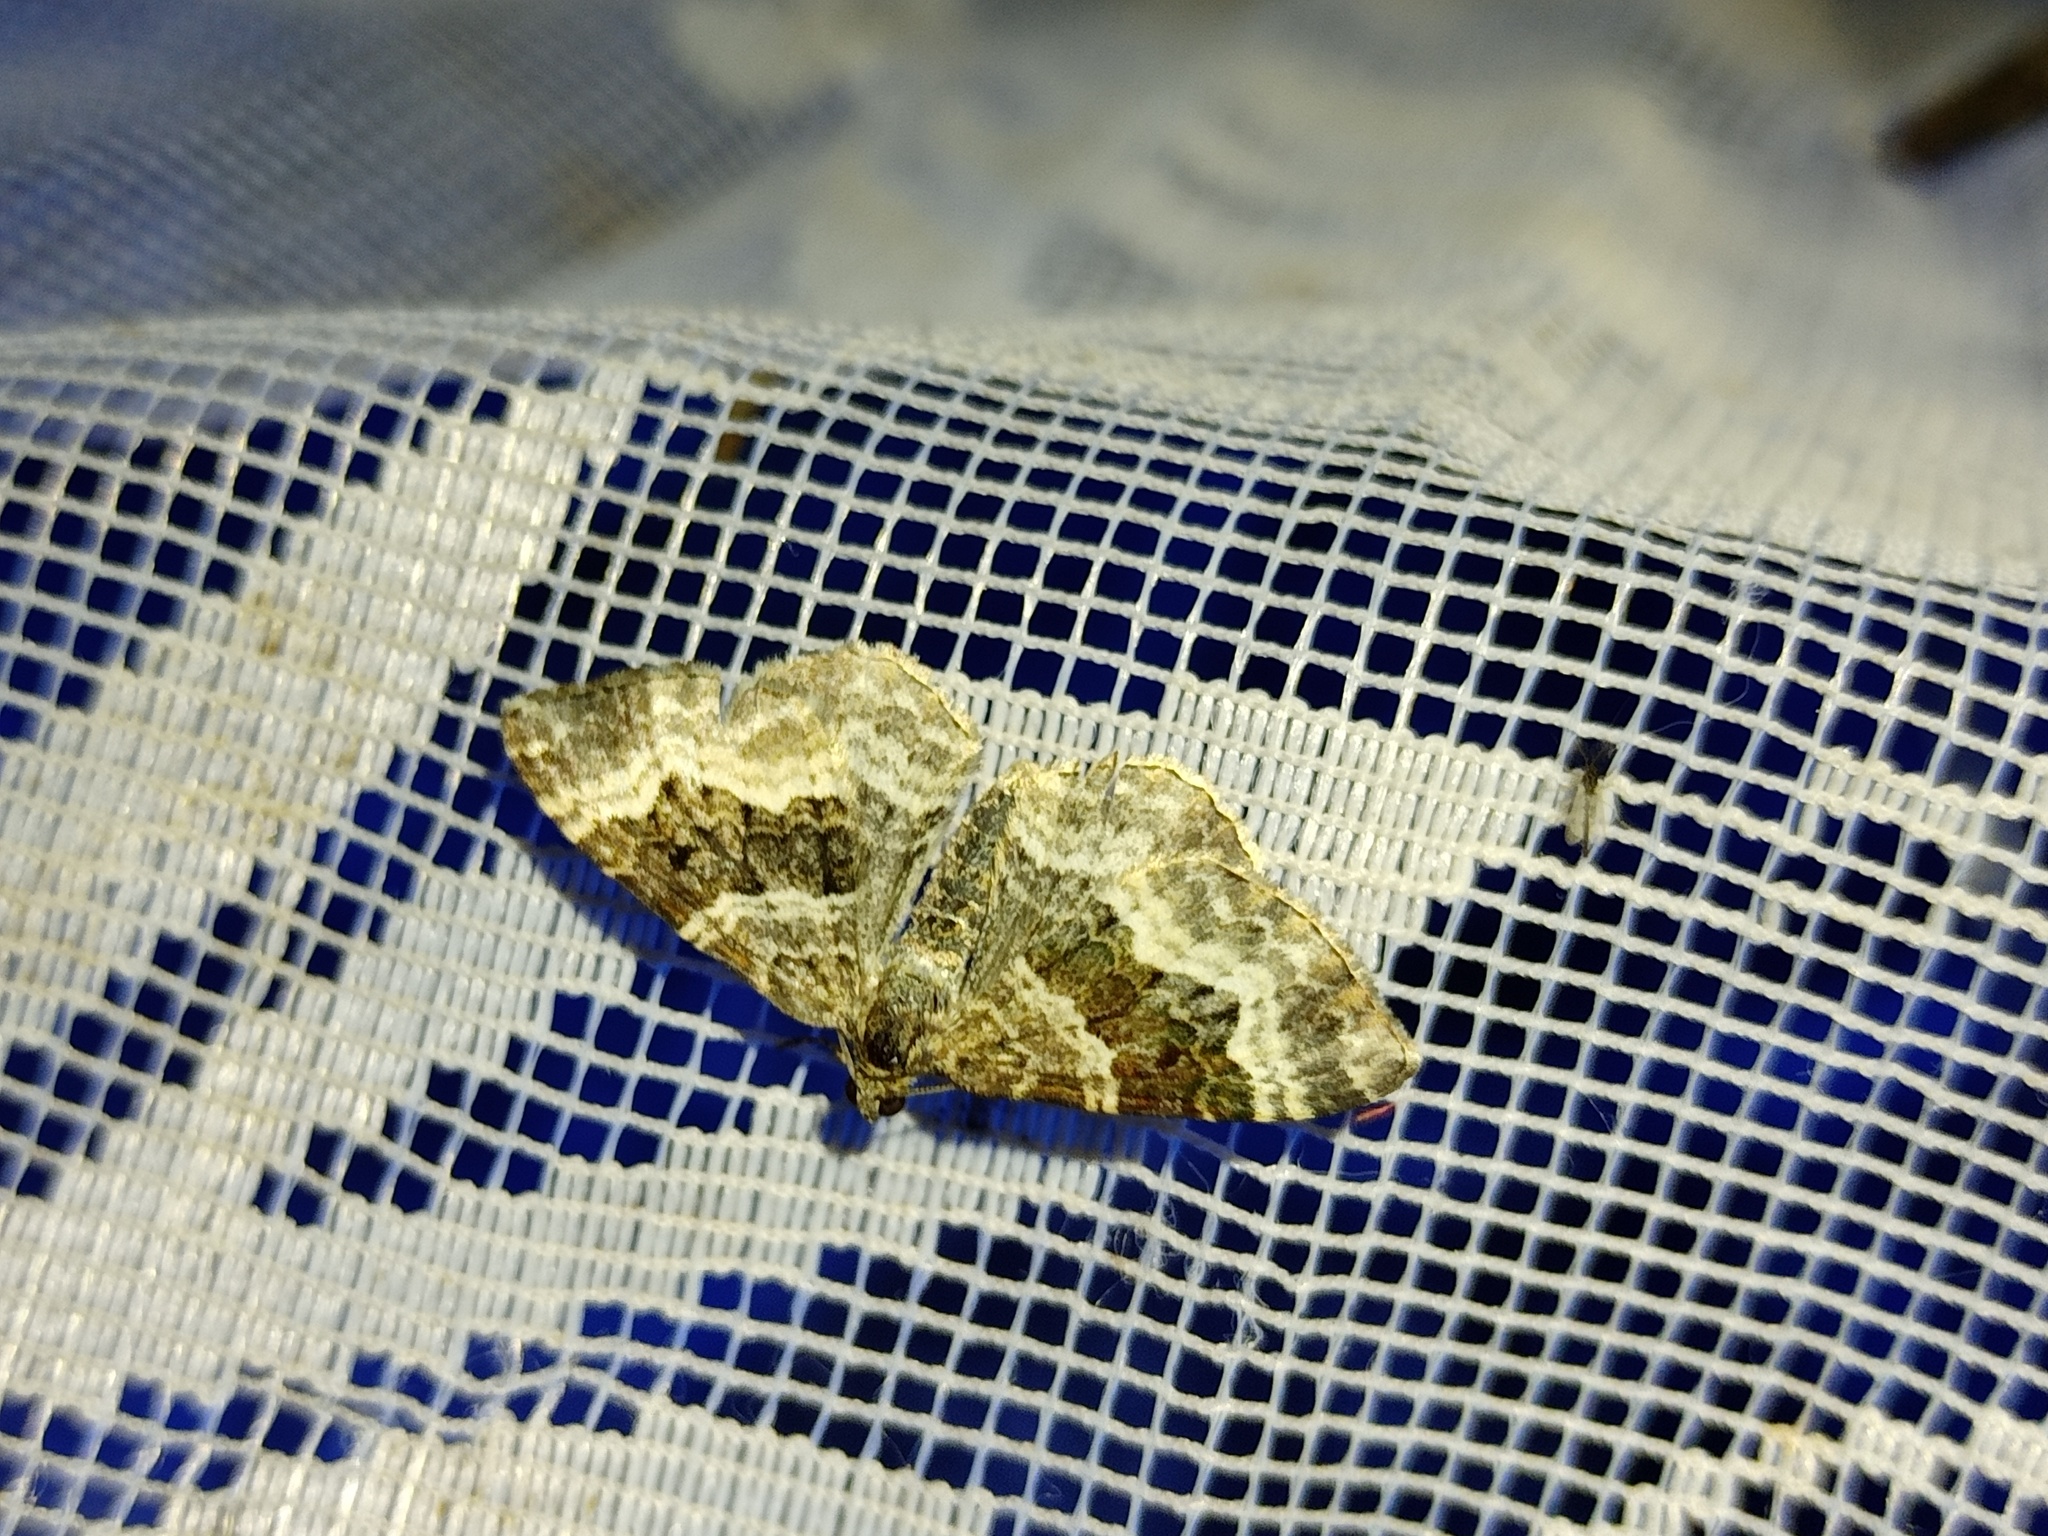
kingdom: Animalia
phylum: Arthropoda
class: Insecta
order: Lepidoptera
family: Geometridae
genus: Epirrhoe
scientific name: Epirrhoe alternata
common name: Common carpet
